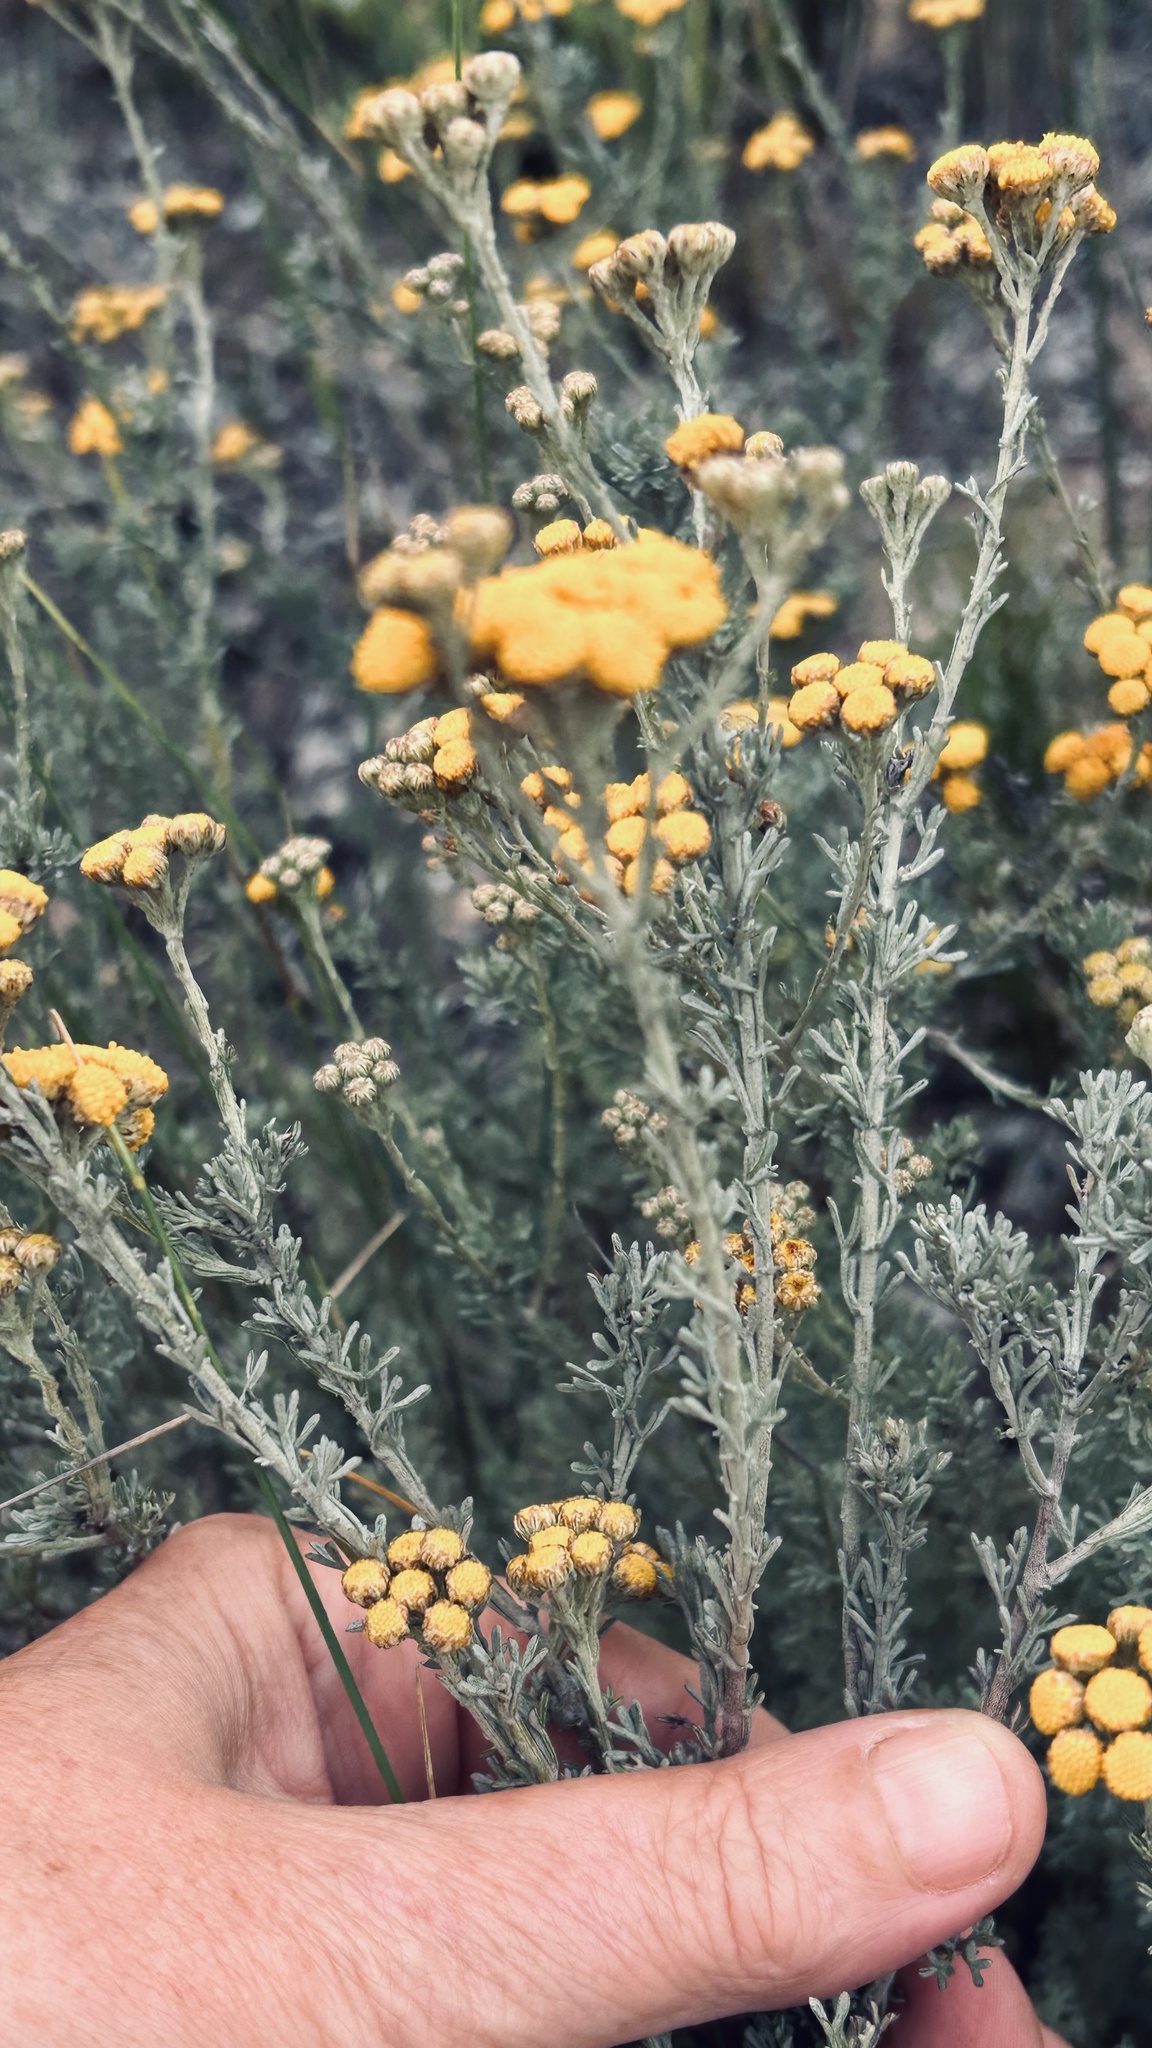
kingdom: Plantae
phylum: Tracheophyta
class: Magnoliopsida
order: Asterales
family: Asteraceae
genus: Pentzia
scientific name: Pentzia trifida
